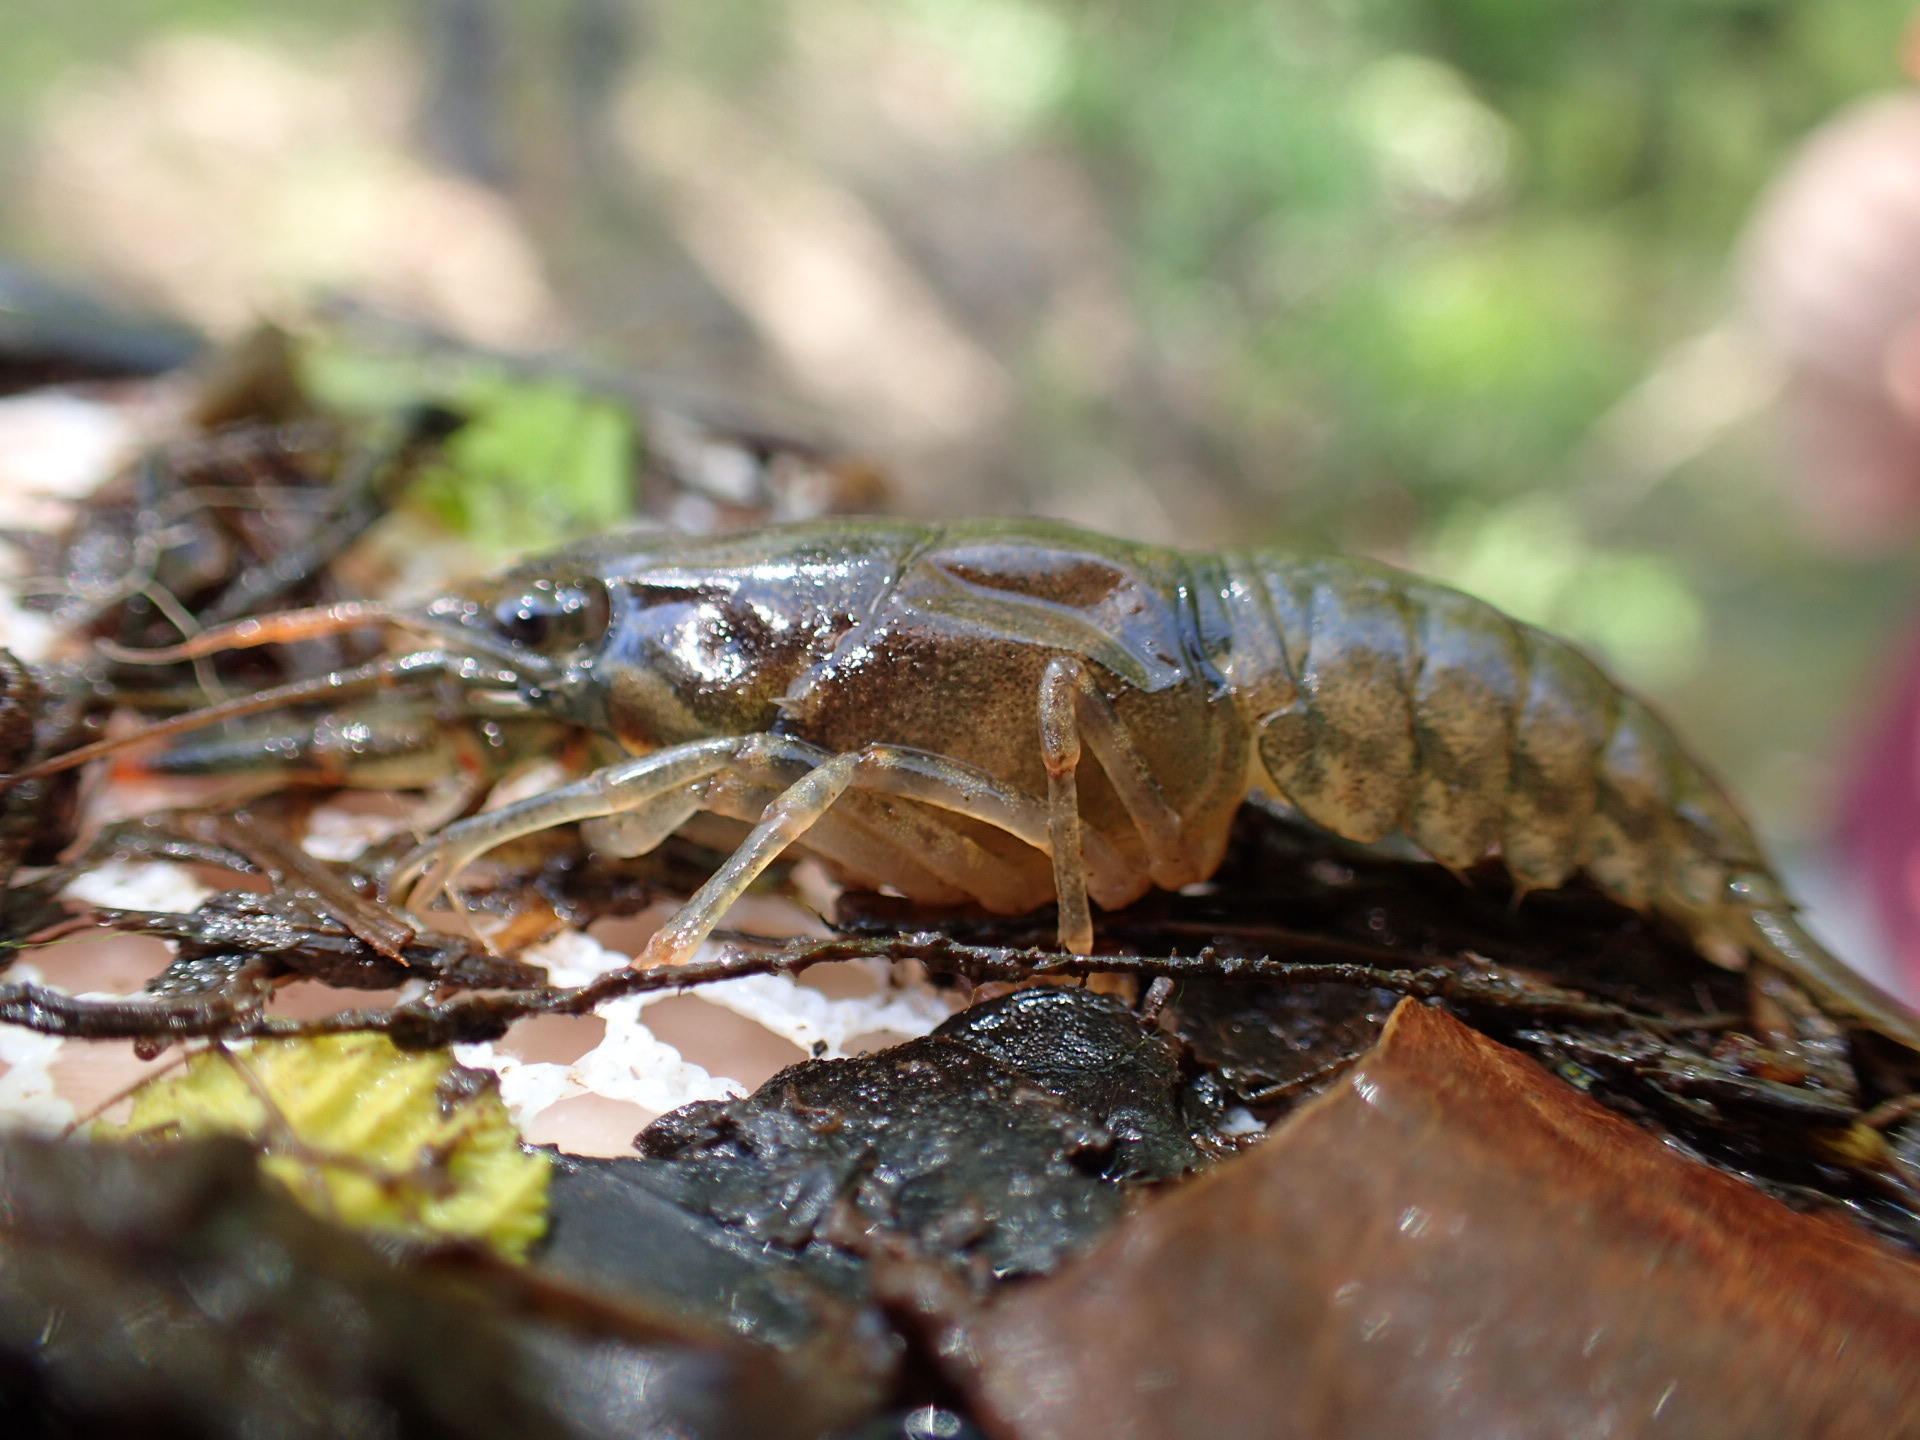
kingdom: Animalia
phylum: Arthropoda
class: Malacostraca
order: Decapoda
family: Cambaridae
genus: Faxonius
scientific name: Faxonius obscurus
